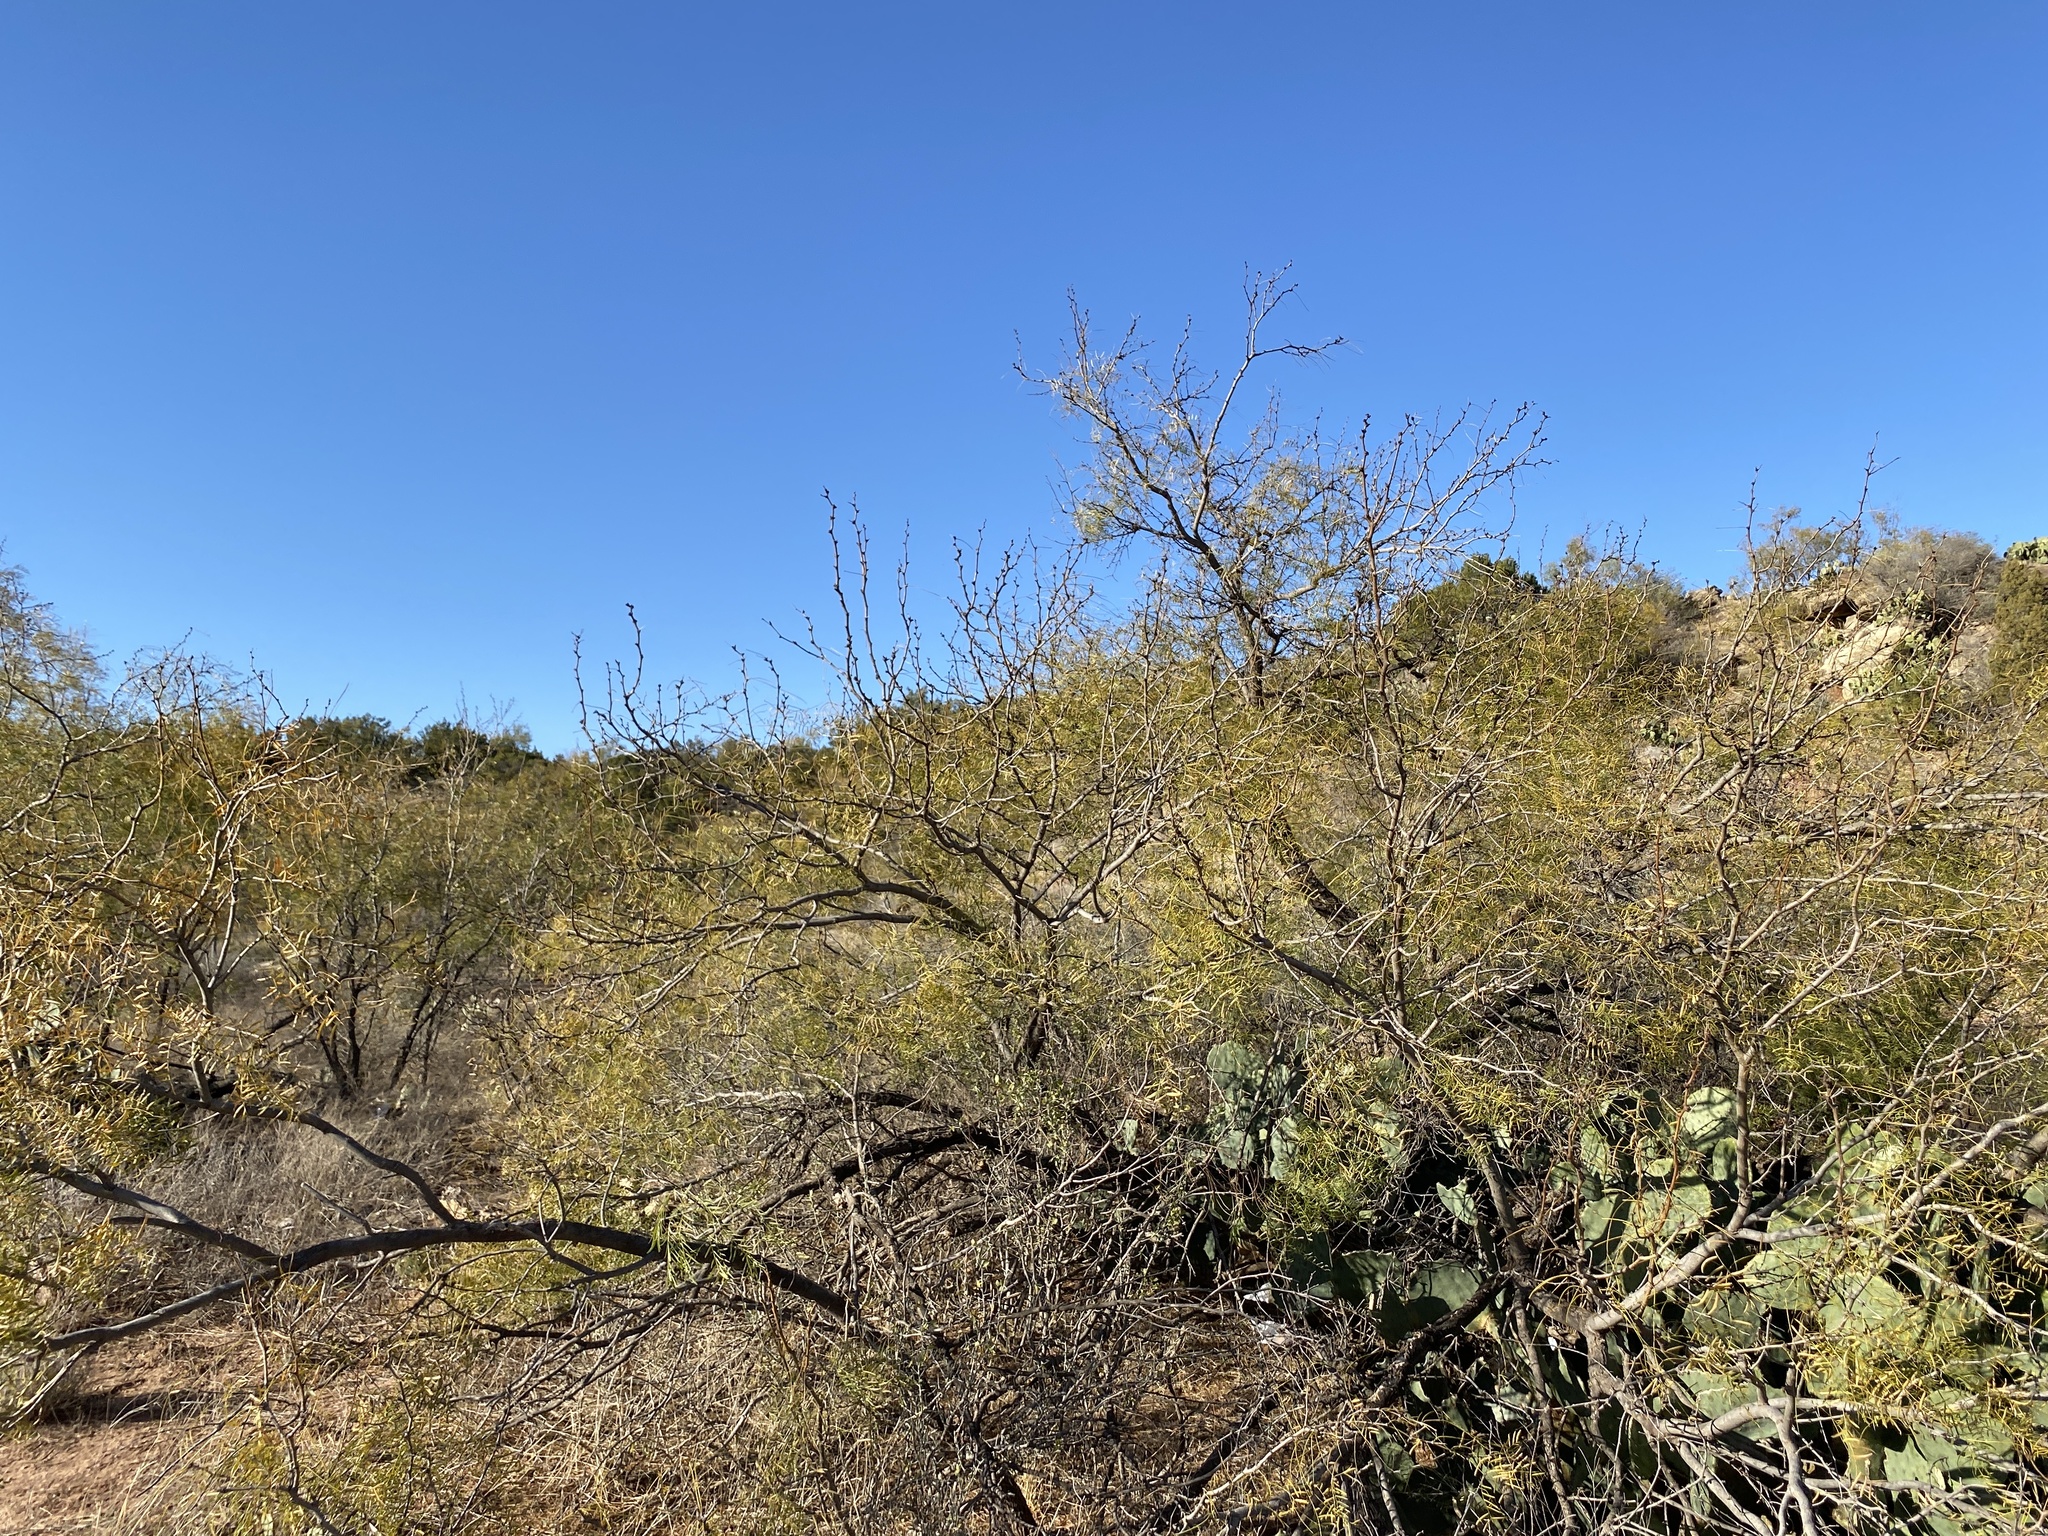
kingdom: Plantae
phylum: Tracheophyta
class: Magnoliopsida
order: Fabales
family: Fabaceae
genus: Prosopis
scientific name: Prosopis glandulosa
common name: Honey mesquite
